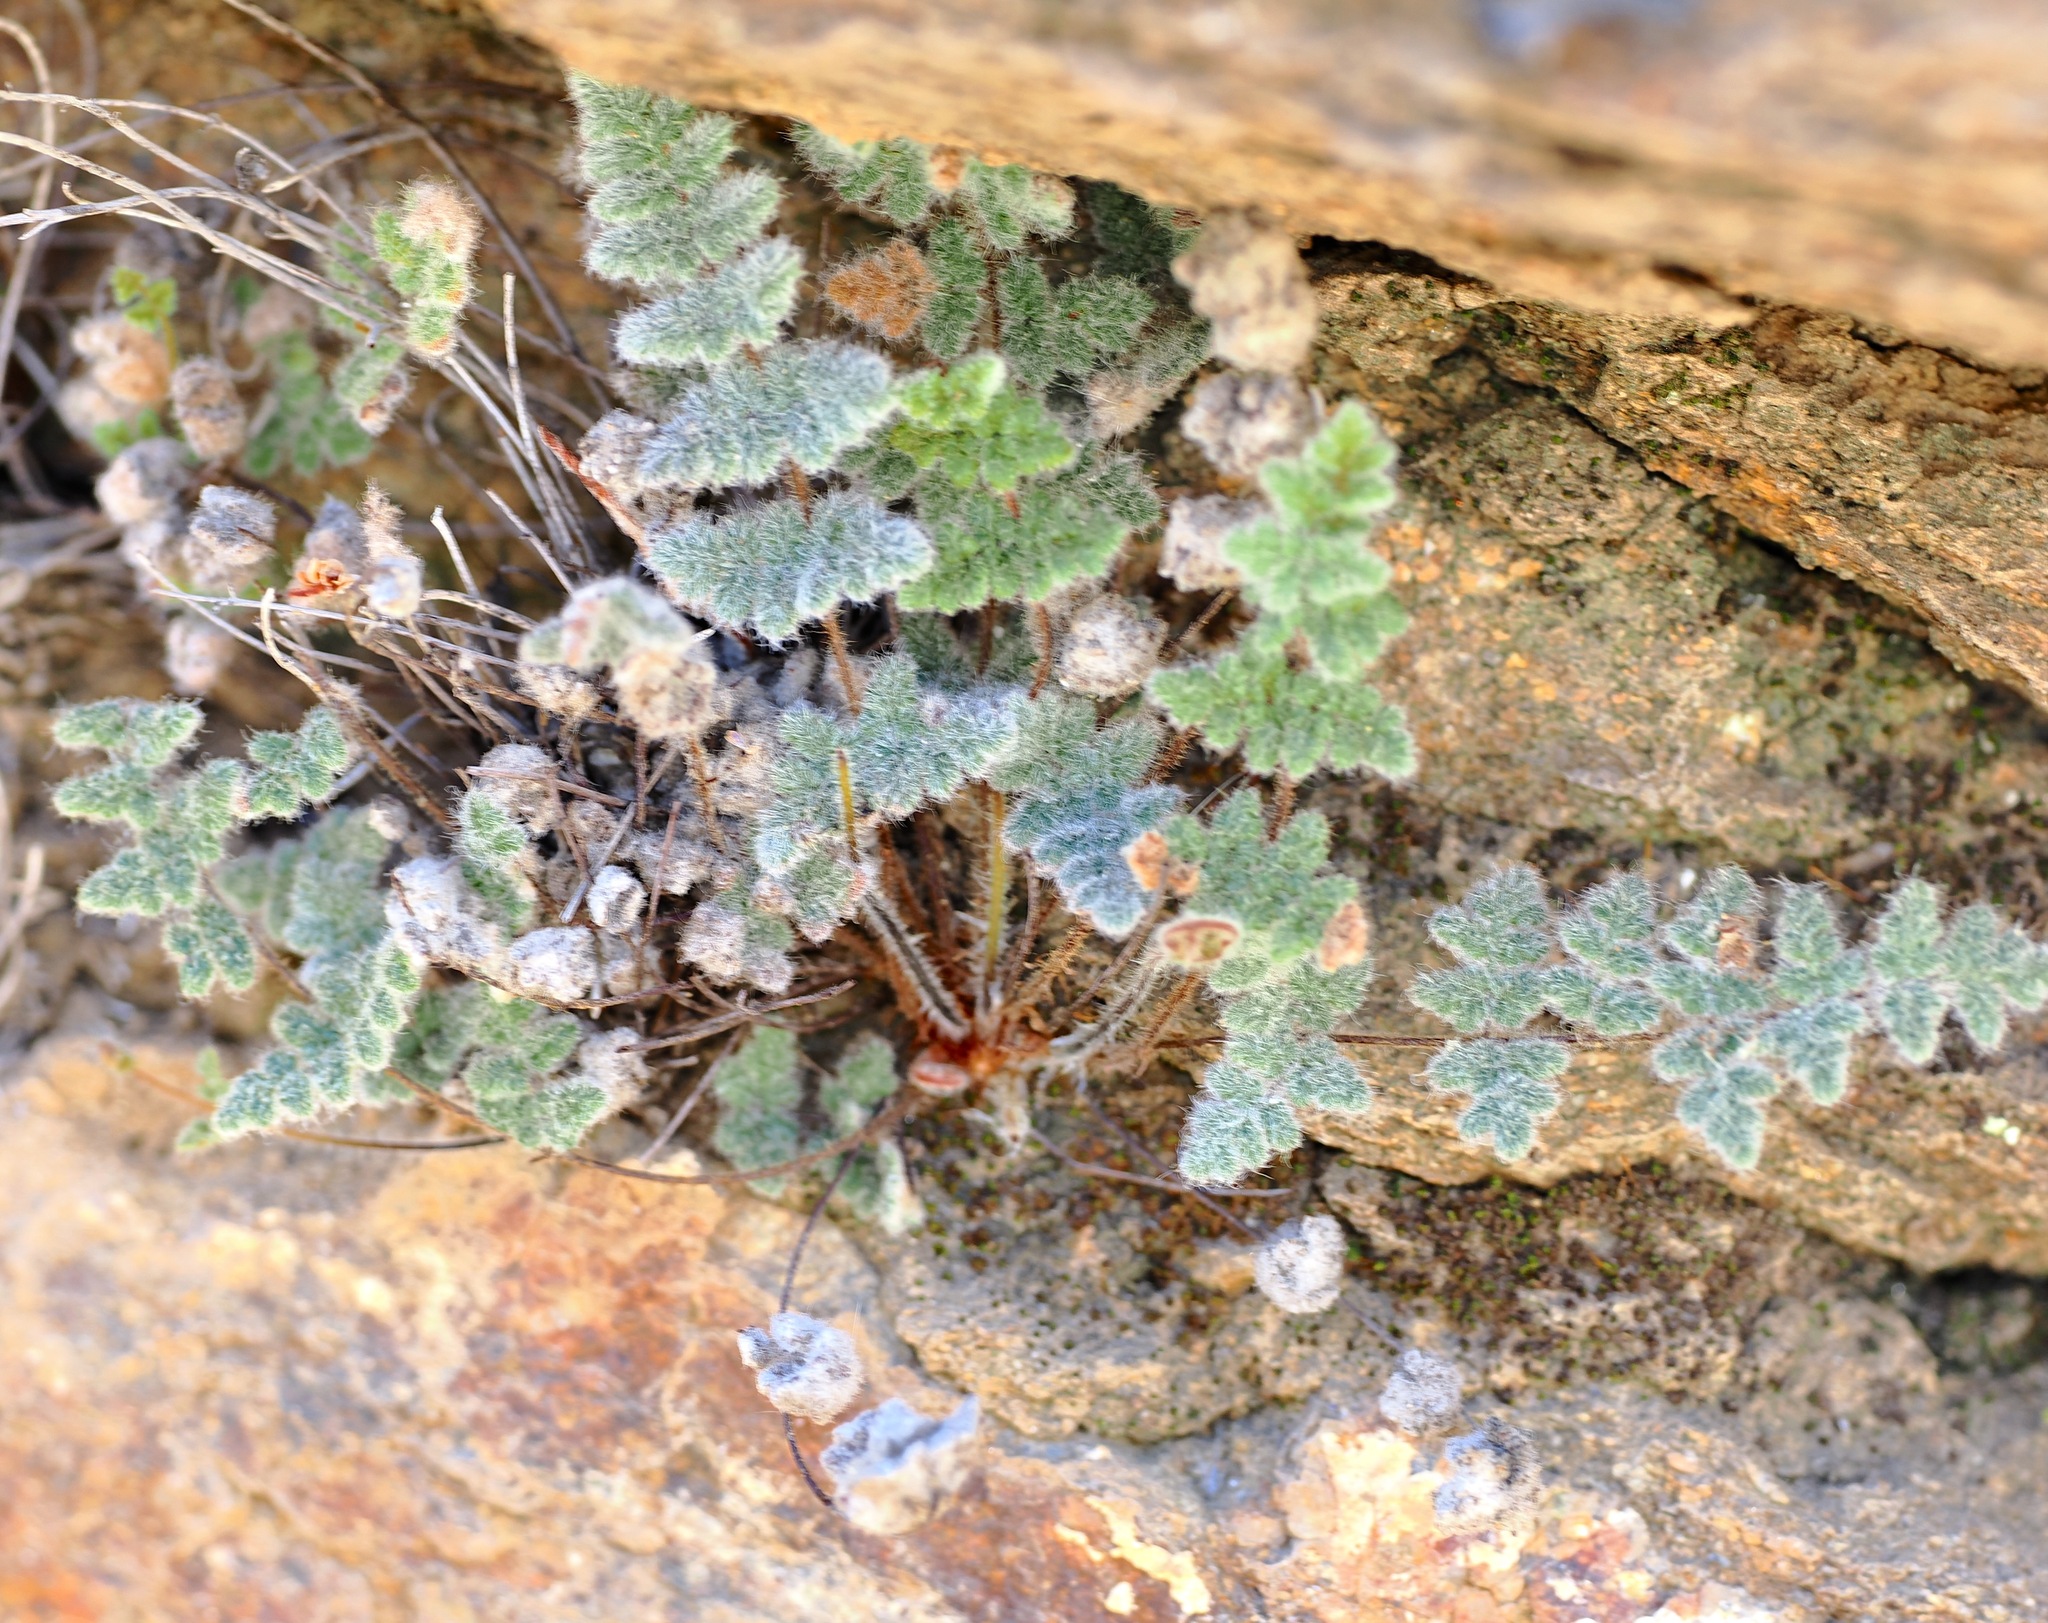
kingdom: Plantae
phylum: Tracheophyta
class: Polypodiopsida
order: Polypodiales
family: Pteridaceae
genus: Myriopteris
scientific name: Myriopteris parryi
